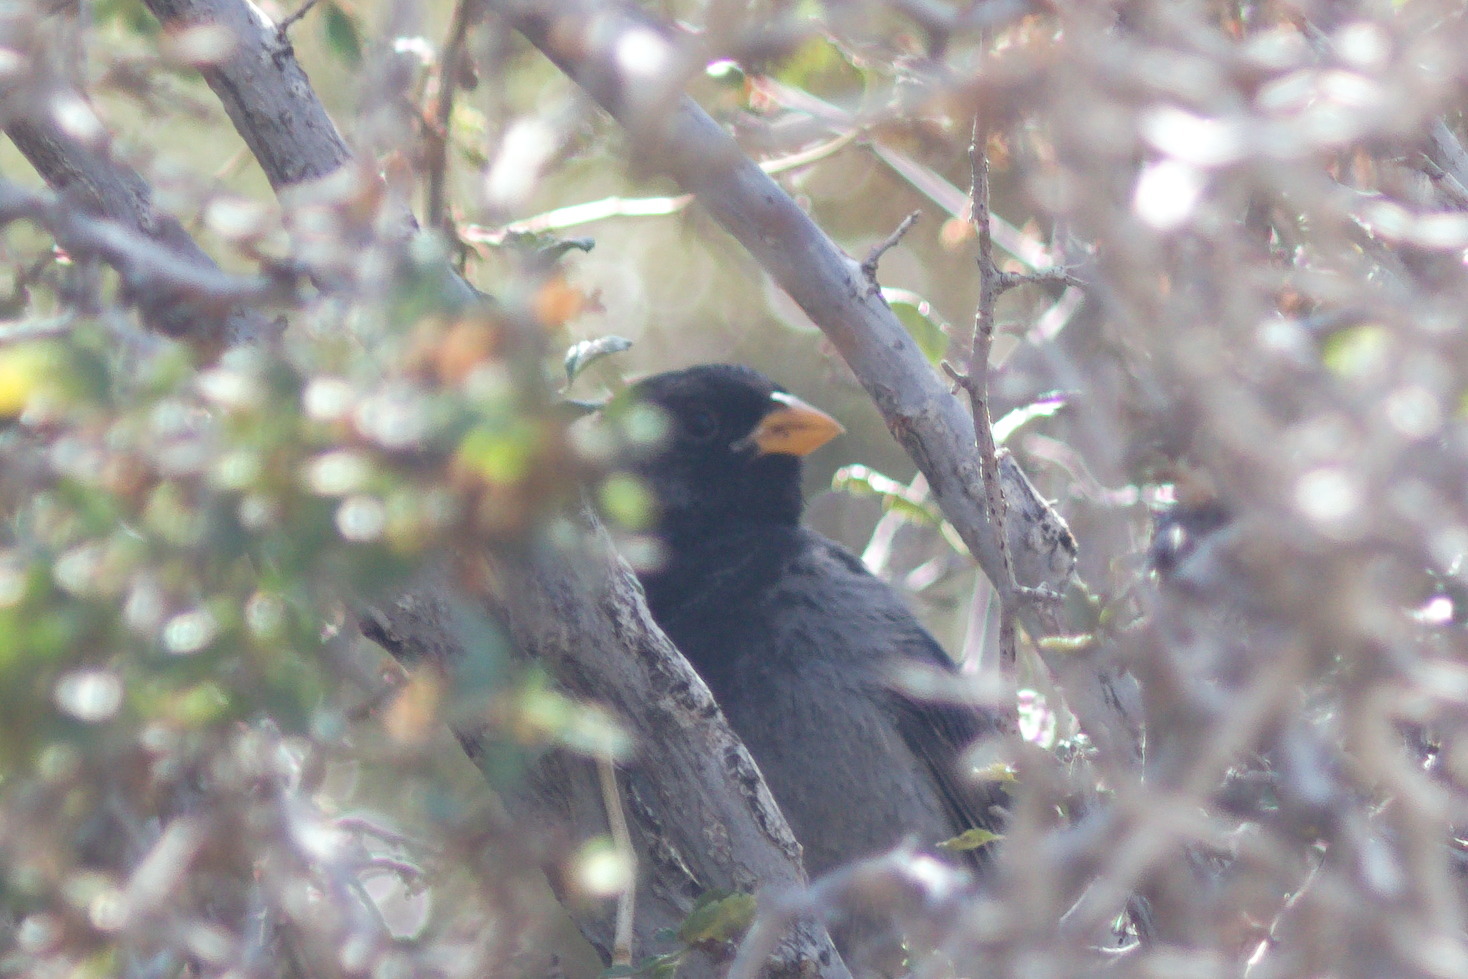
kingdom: Animalia
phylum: Chordata
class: Aves
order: Passeriformes
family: Thraupidae
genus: Rhopospina
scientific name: Rhopospina fruticeti
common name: Mourning sierra finch
